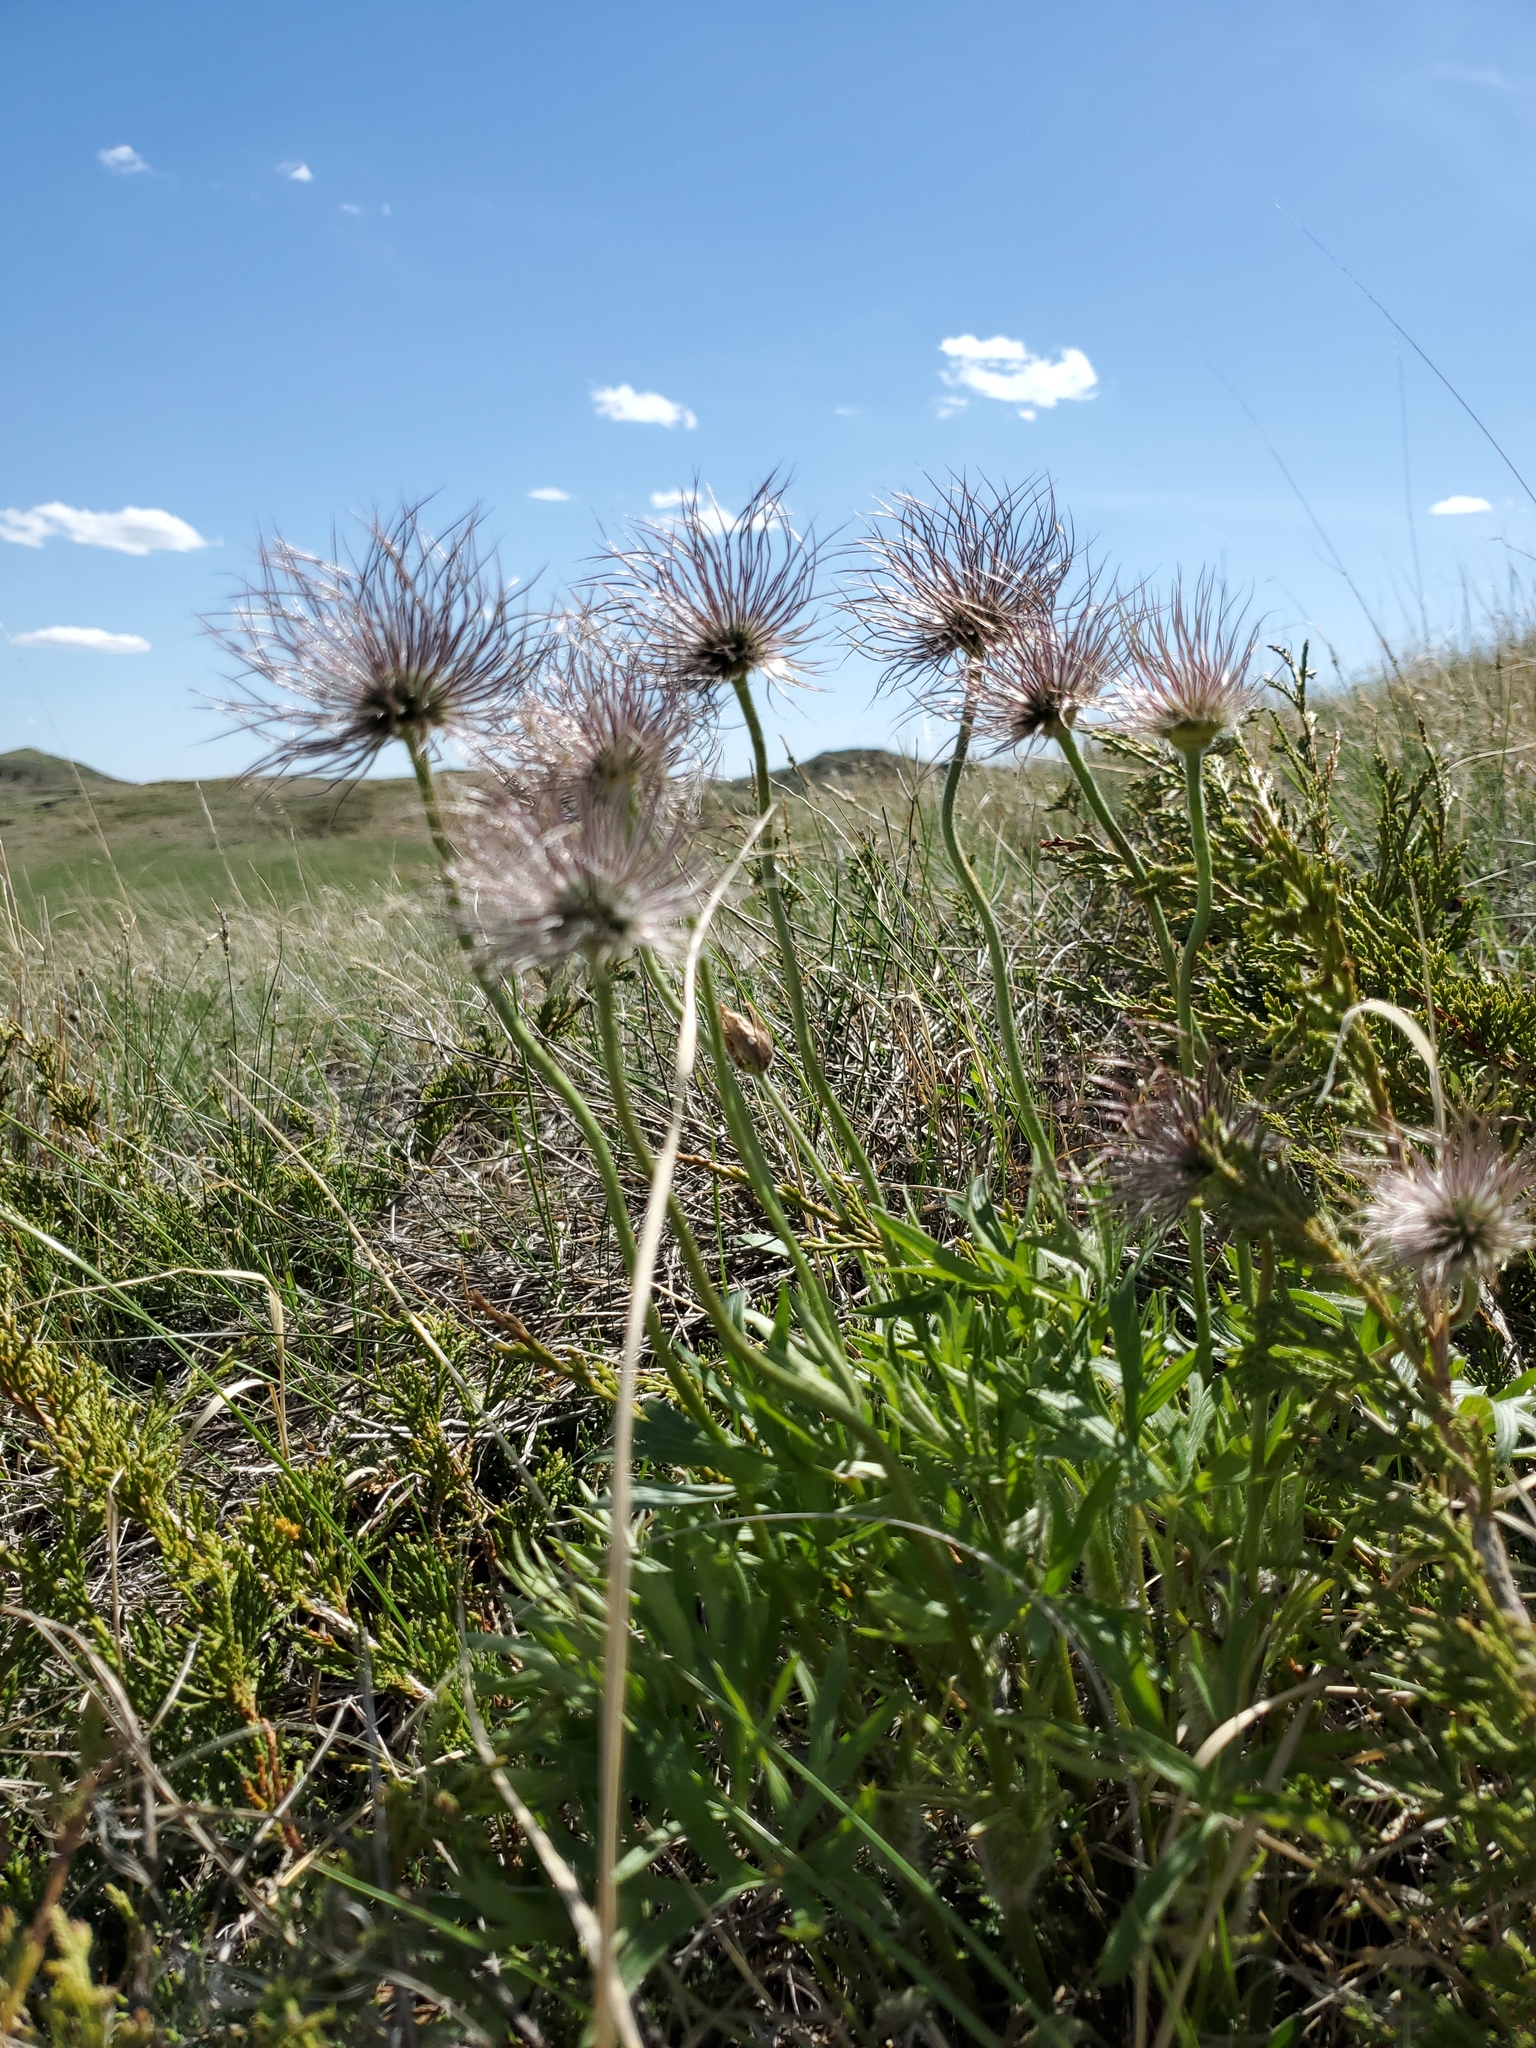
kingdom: Plantae
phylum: Tracheophyta
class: Magnoliopsida
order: Ranunculales
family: Ranunculaceae
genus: Pulsatilla
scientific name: Pulsatilla nuttalliana
